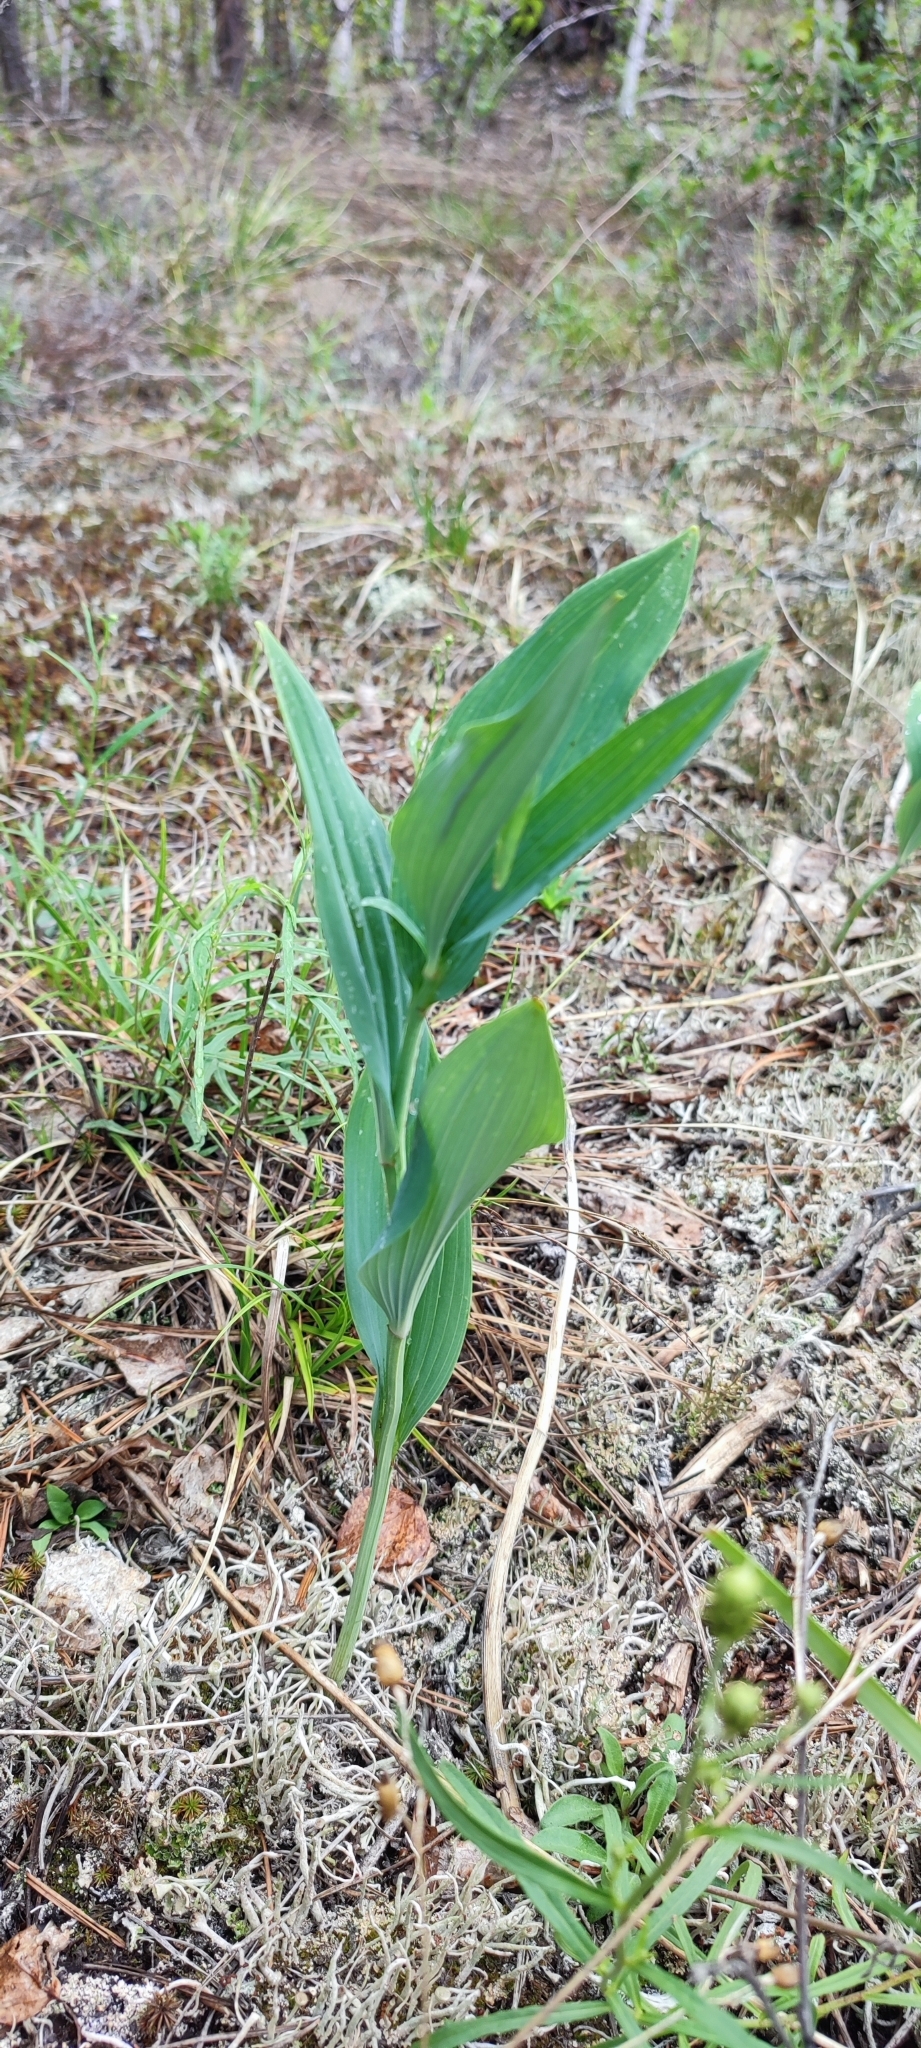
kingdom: Plantae
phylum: Tracheophyta
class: Liliopsida
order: Asparagales
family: Asparagaceae
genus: Polygonatum
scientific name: Polygonatum odoratum
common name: Angular solomon's-seal
